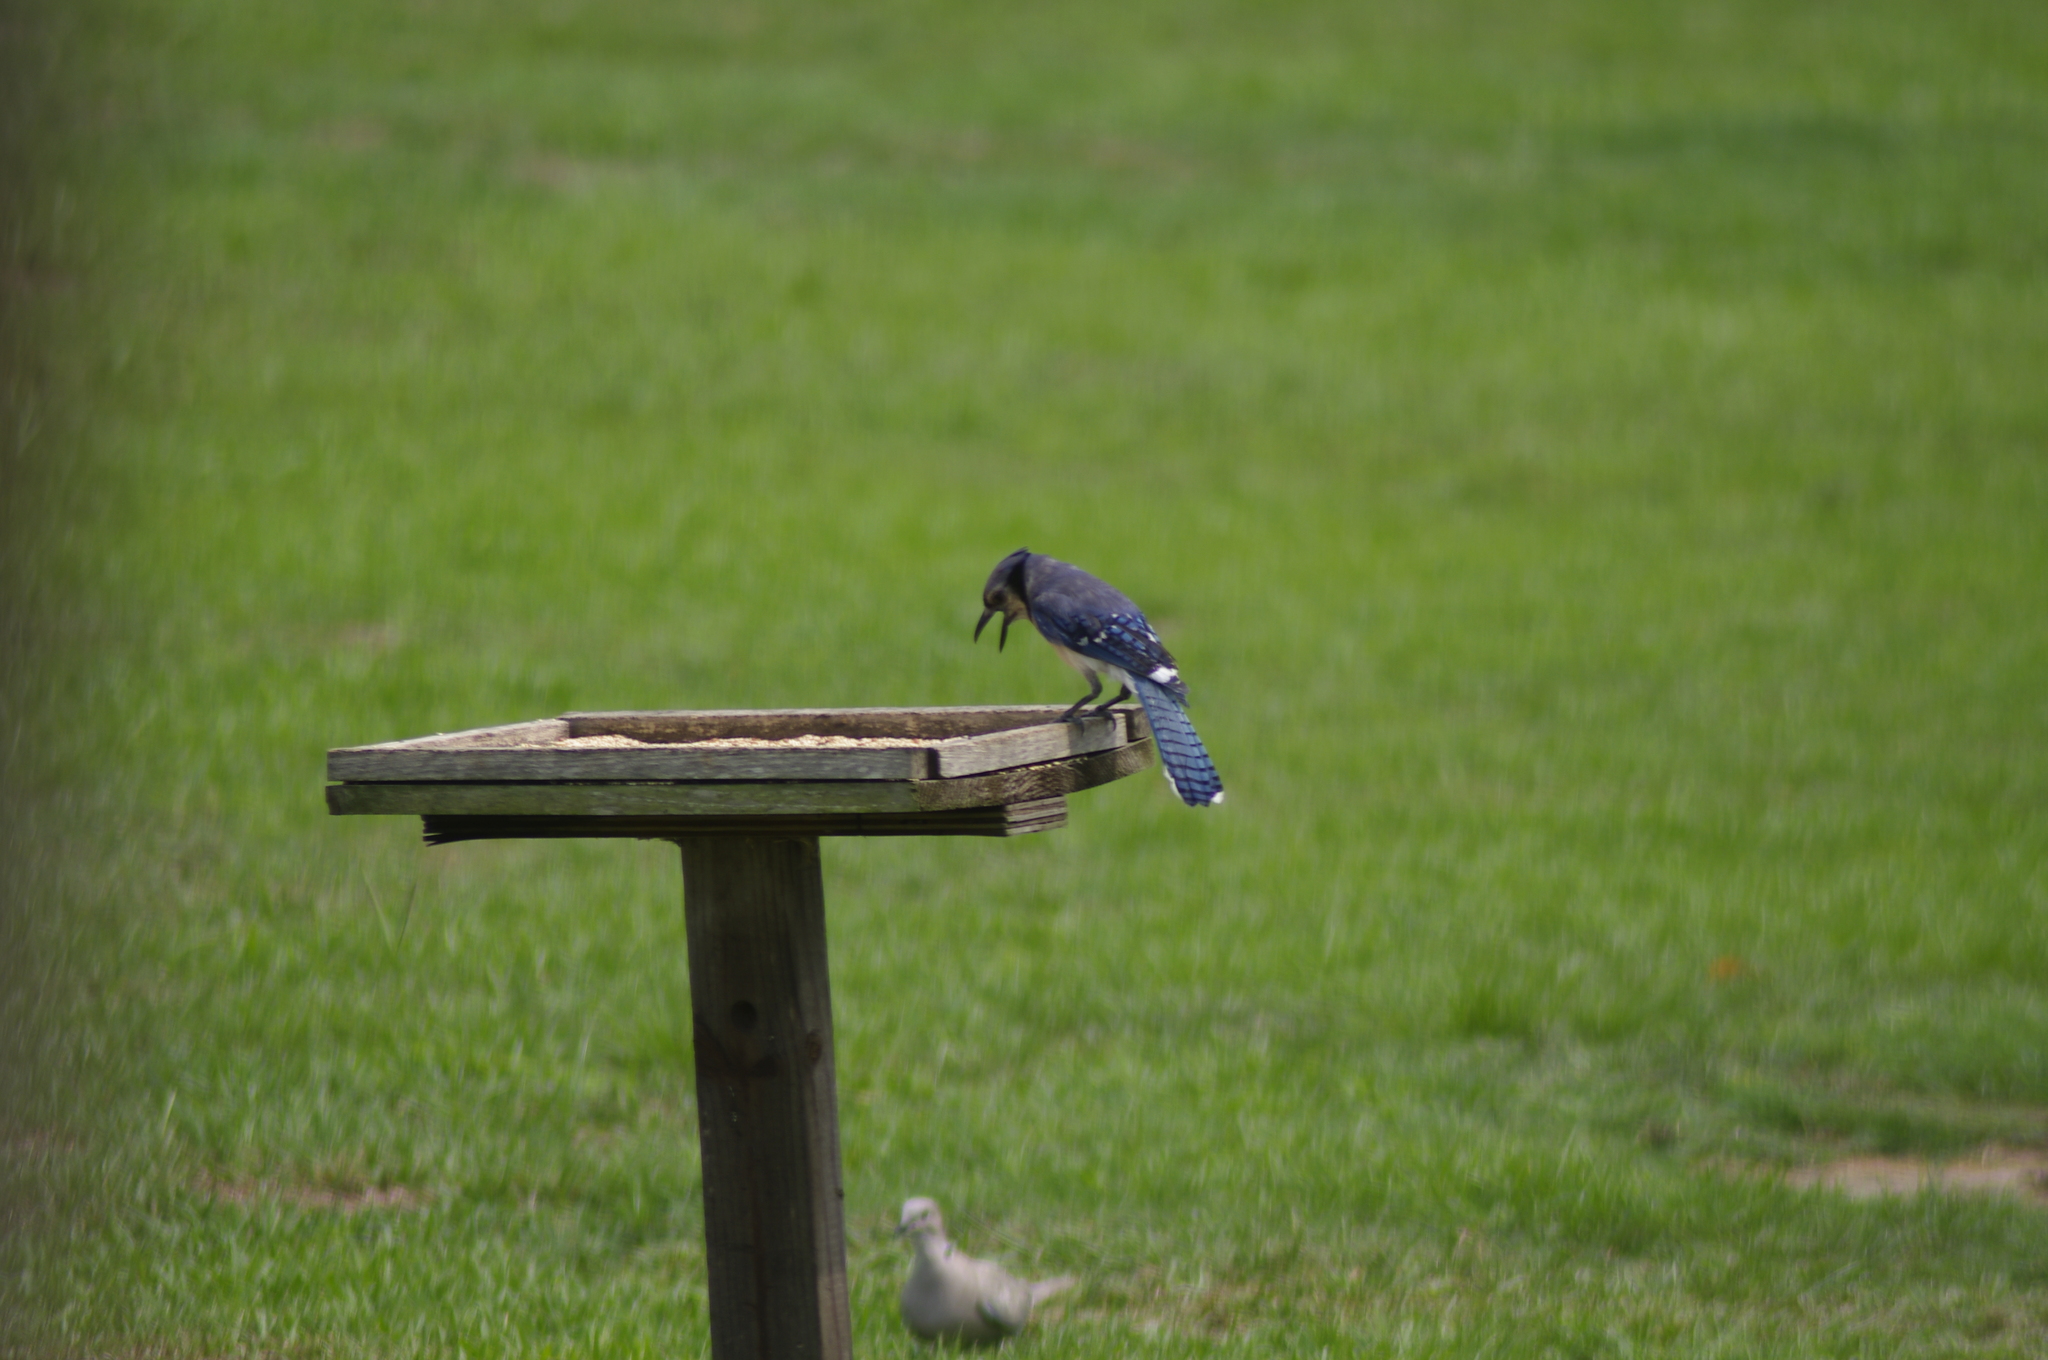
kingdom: Animalia
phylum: Chordata
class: Aves
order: Passeriformes
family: Corvidae
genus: Cyanocitta
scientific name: Cyanocitta cristata
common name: Blue jay
